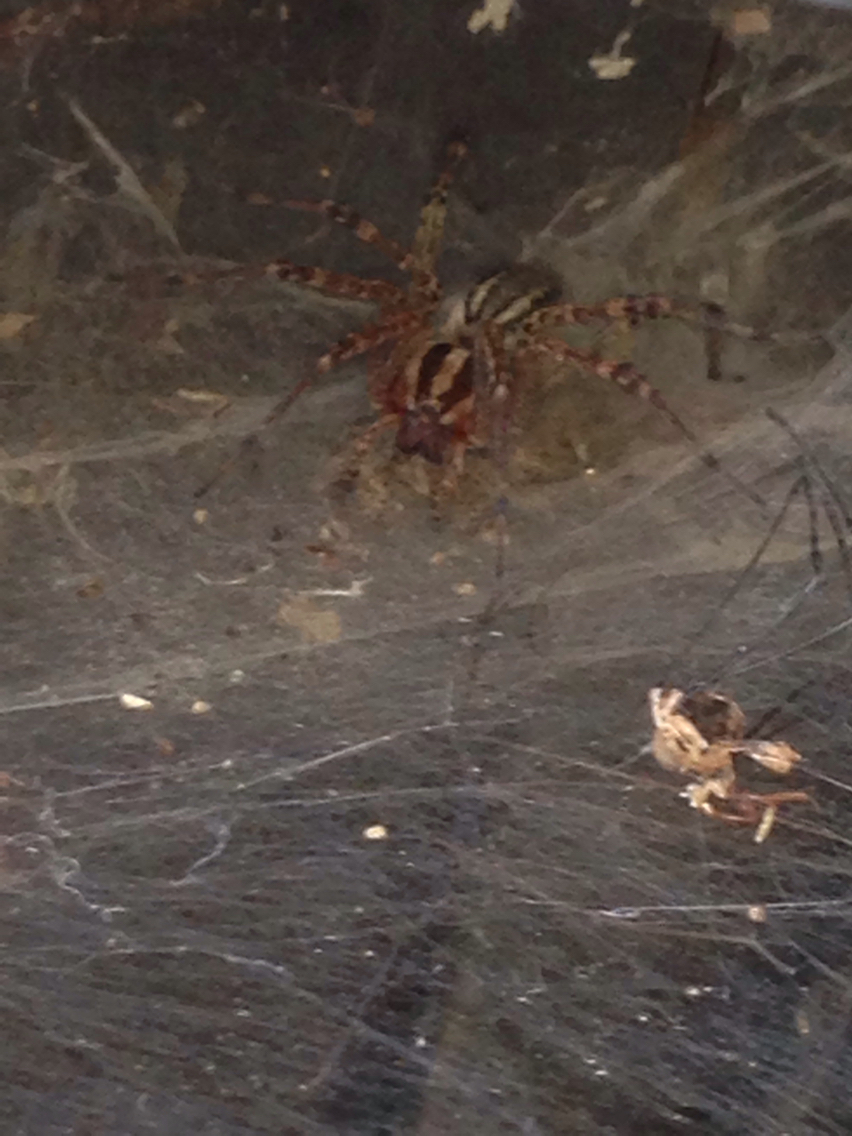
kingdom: Animalia
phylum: Arthropoda
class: Arachnida
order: Araneae
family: Agelenidae
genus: Agelenopsis
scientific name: Agelenopsis
